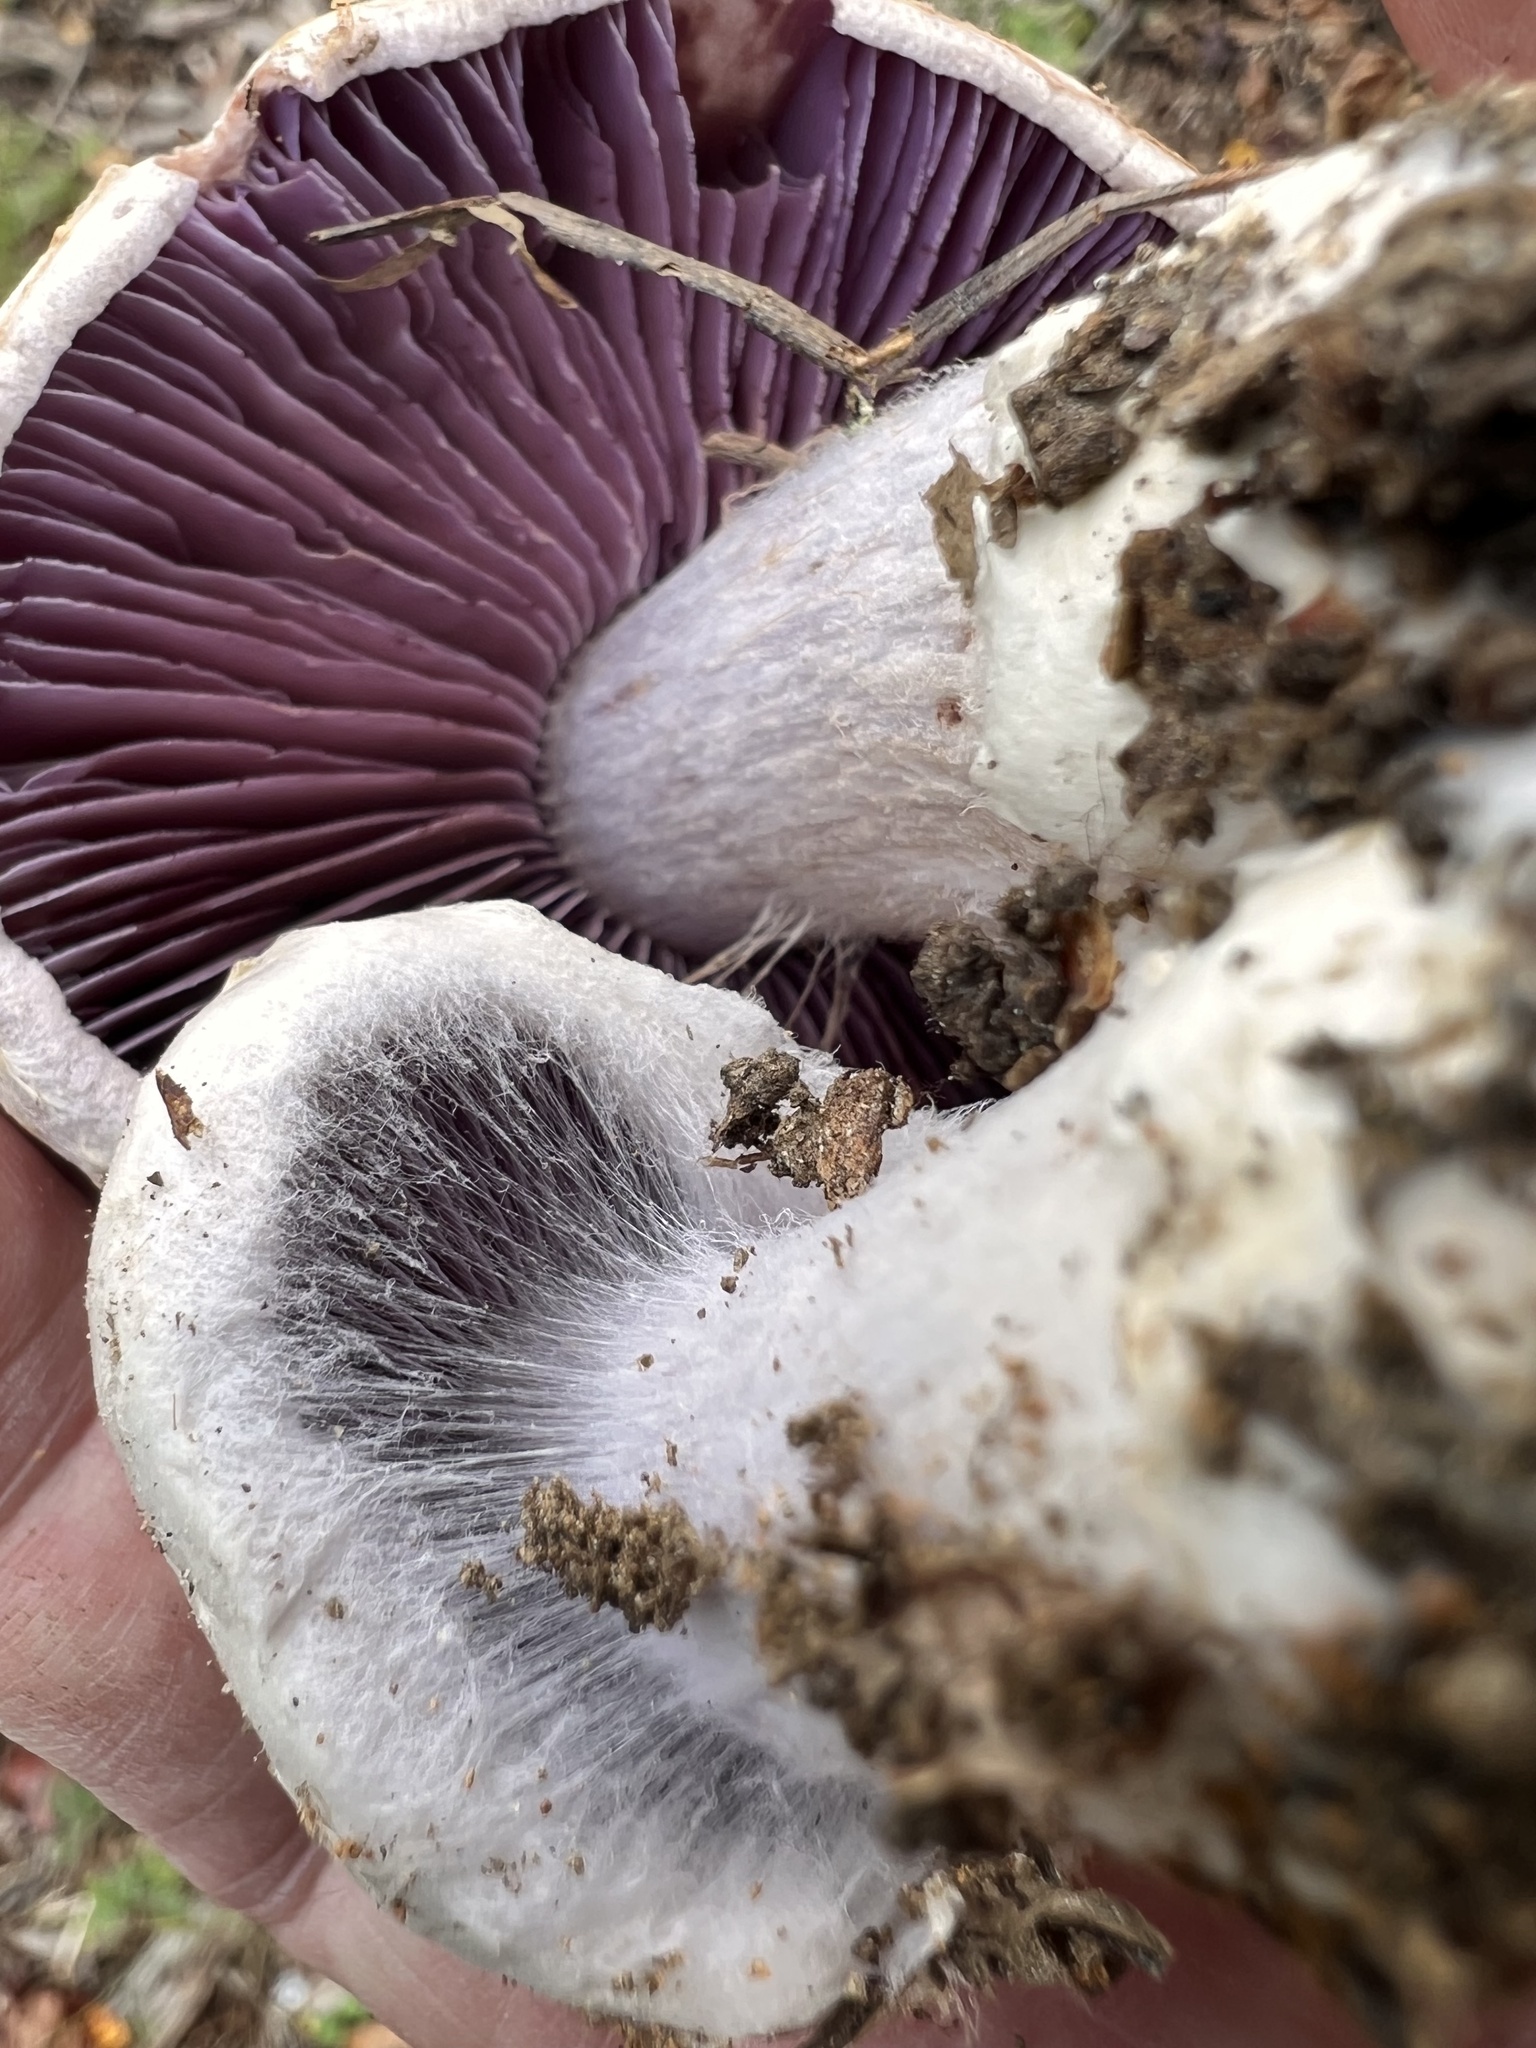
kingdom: Fungi
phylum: Basidiomycota
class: Agaricomycetes
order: Agaricales
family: Cortinariaceae
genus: Cortinarius
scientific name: Cortinarius alboviolaceus
